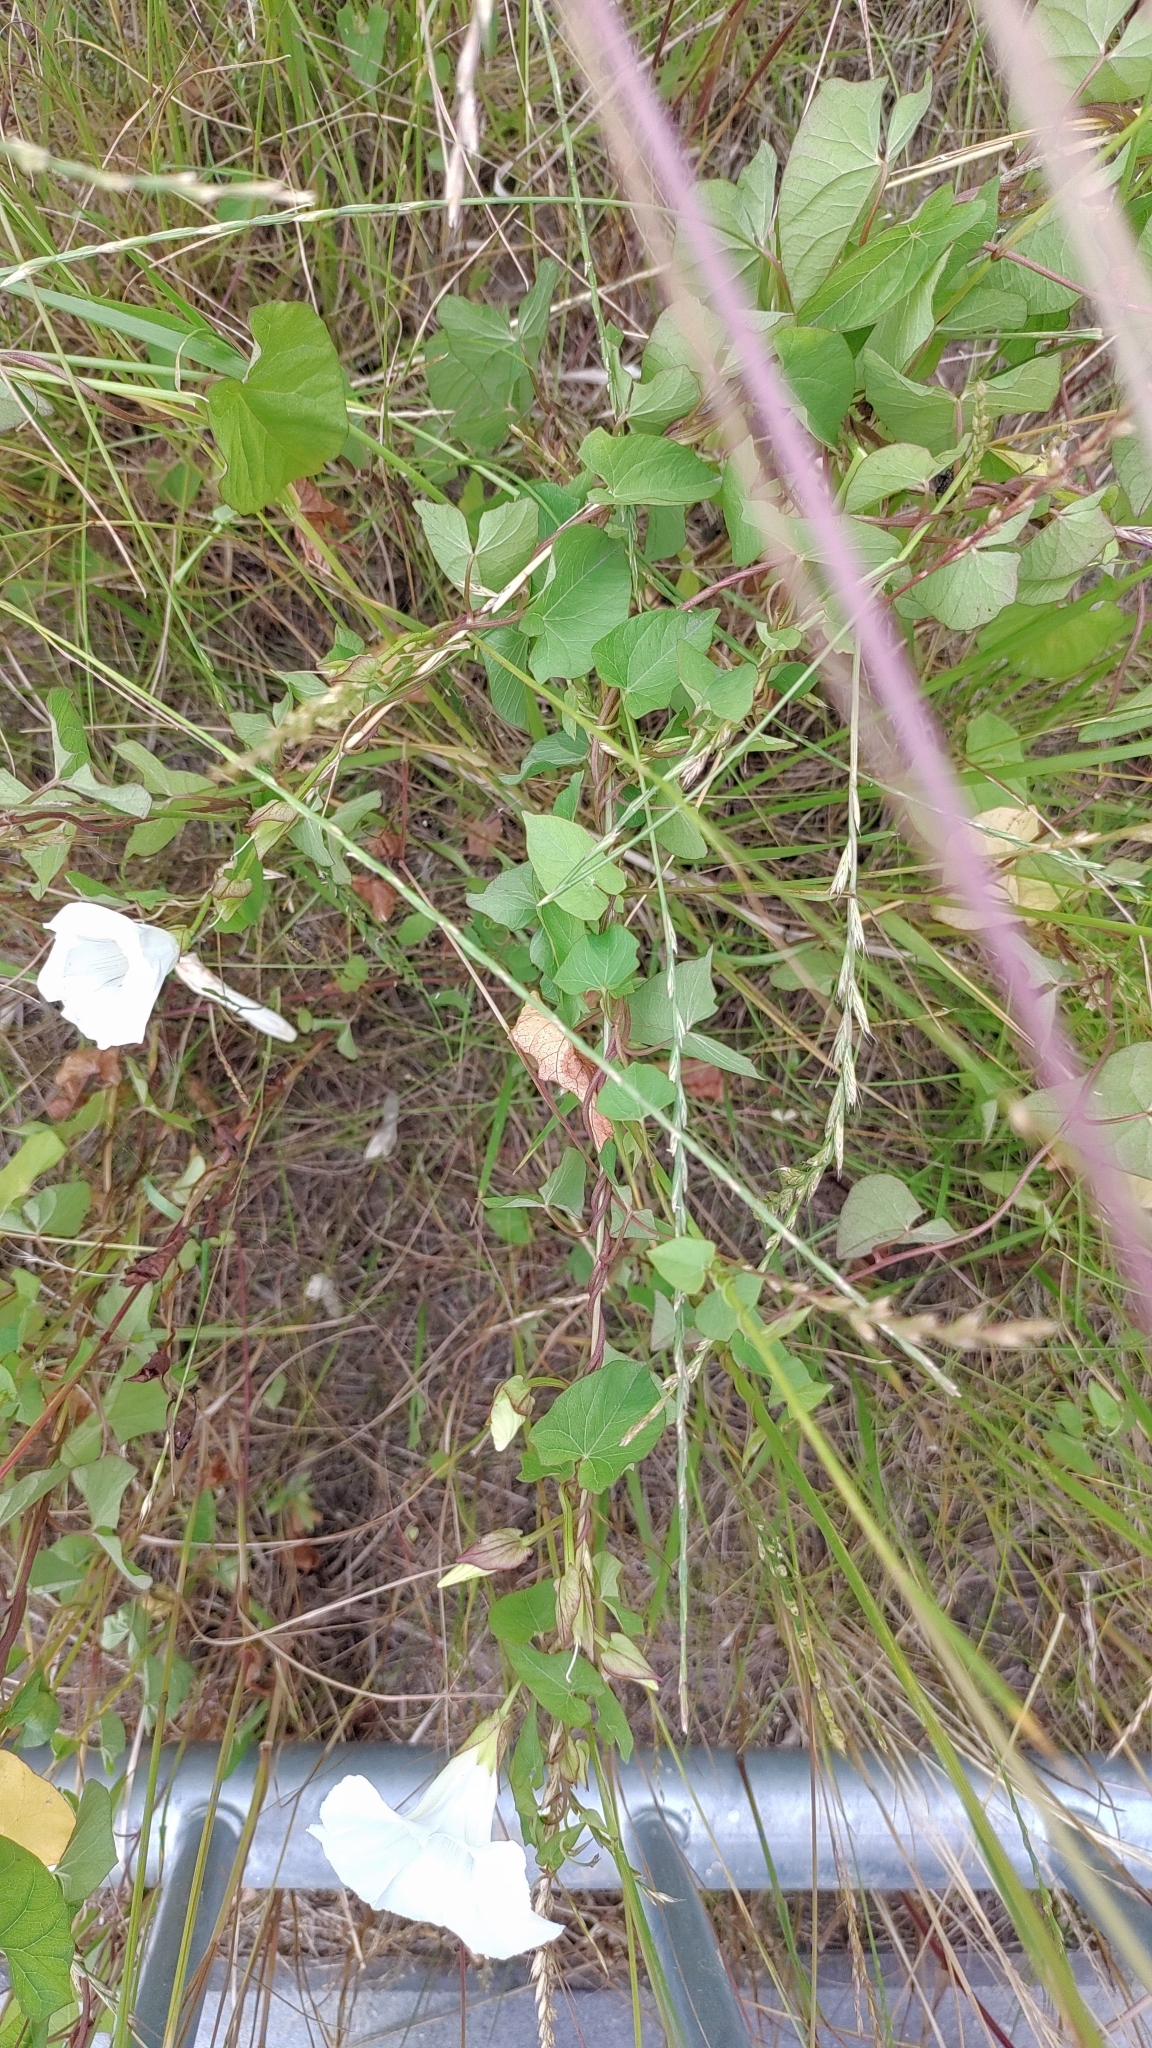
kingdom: Plantae
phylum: Tracheophyta
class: Magnoliopsida
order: Solanales
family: Convolvulaceae
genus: Calystegia
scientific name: Calystegia sepium
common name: Hedge bindweed
